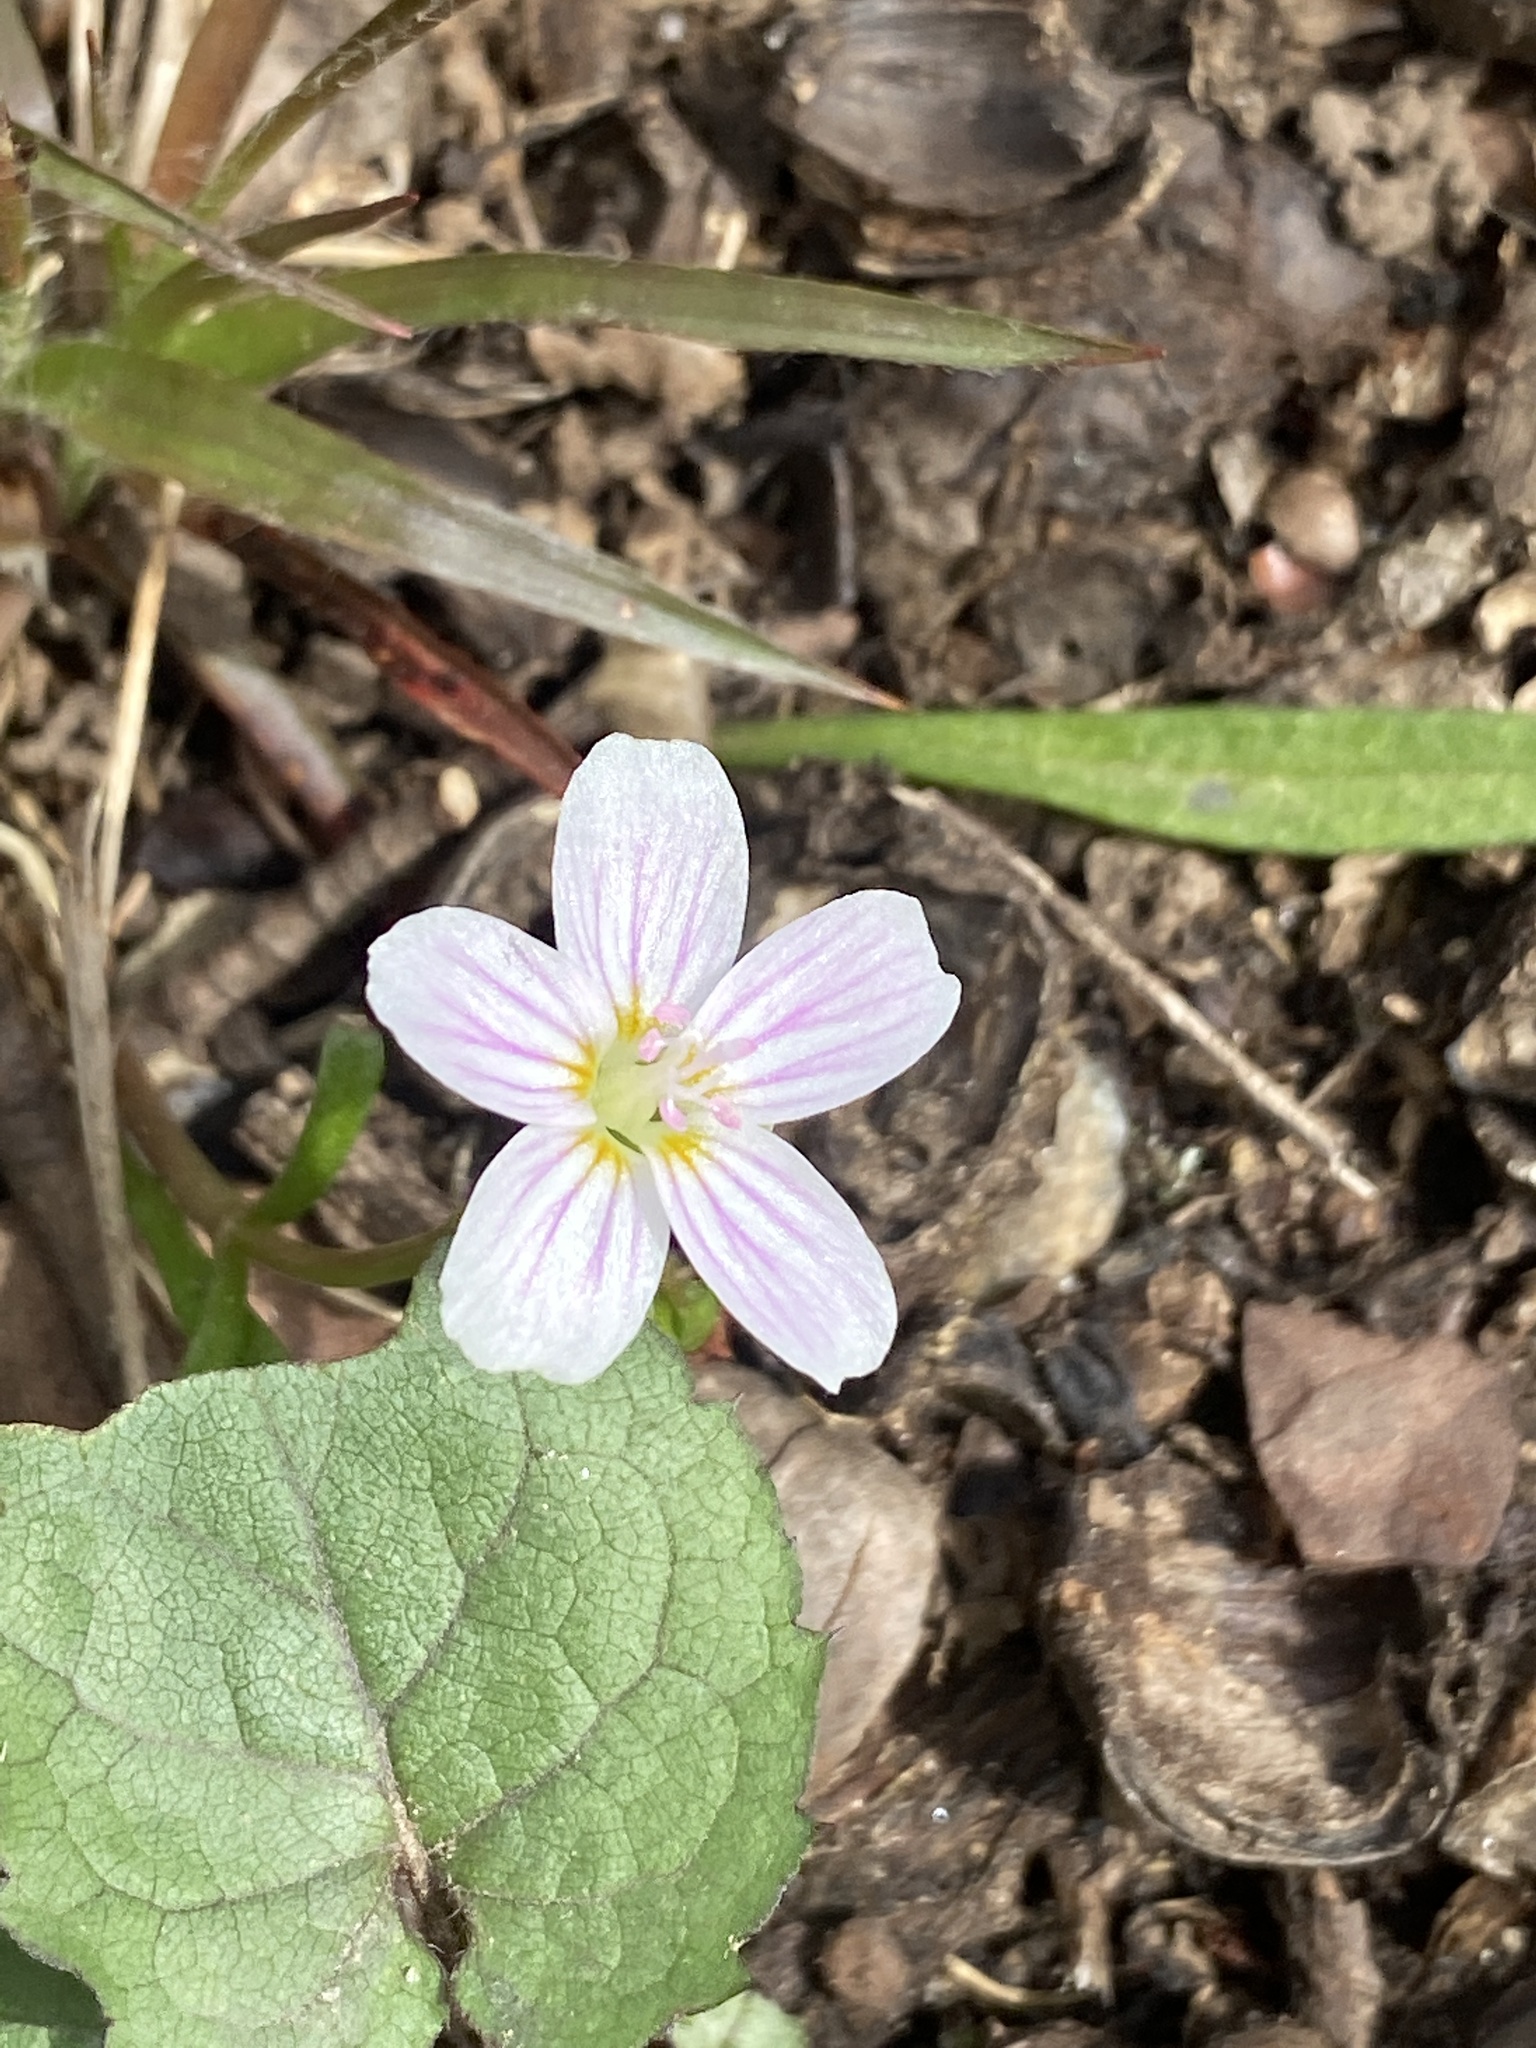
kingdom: Plantae
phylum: Tracheophyta
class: Magnoliopsida
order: Caryophyllales
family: Montiaceae
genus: Claytonia
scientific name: Claytonia virginica
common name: Virginia springbeauty
